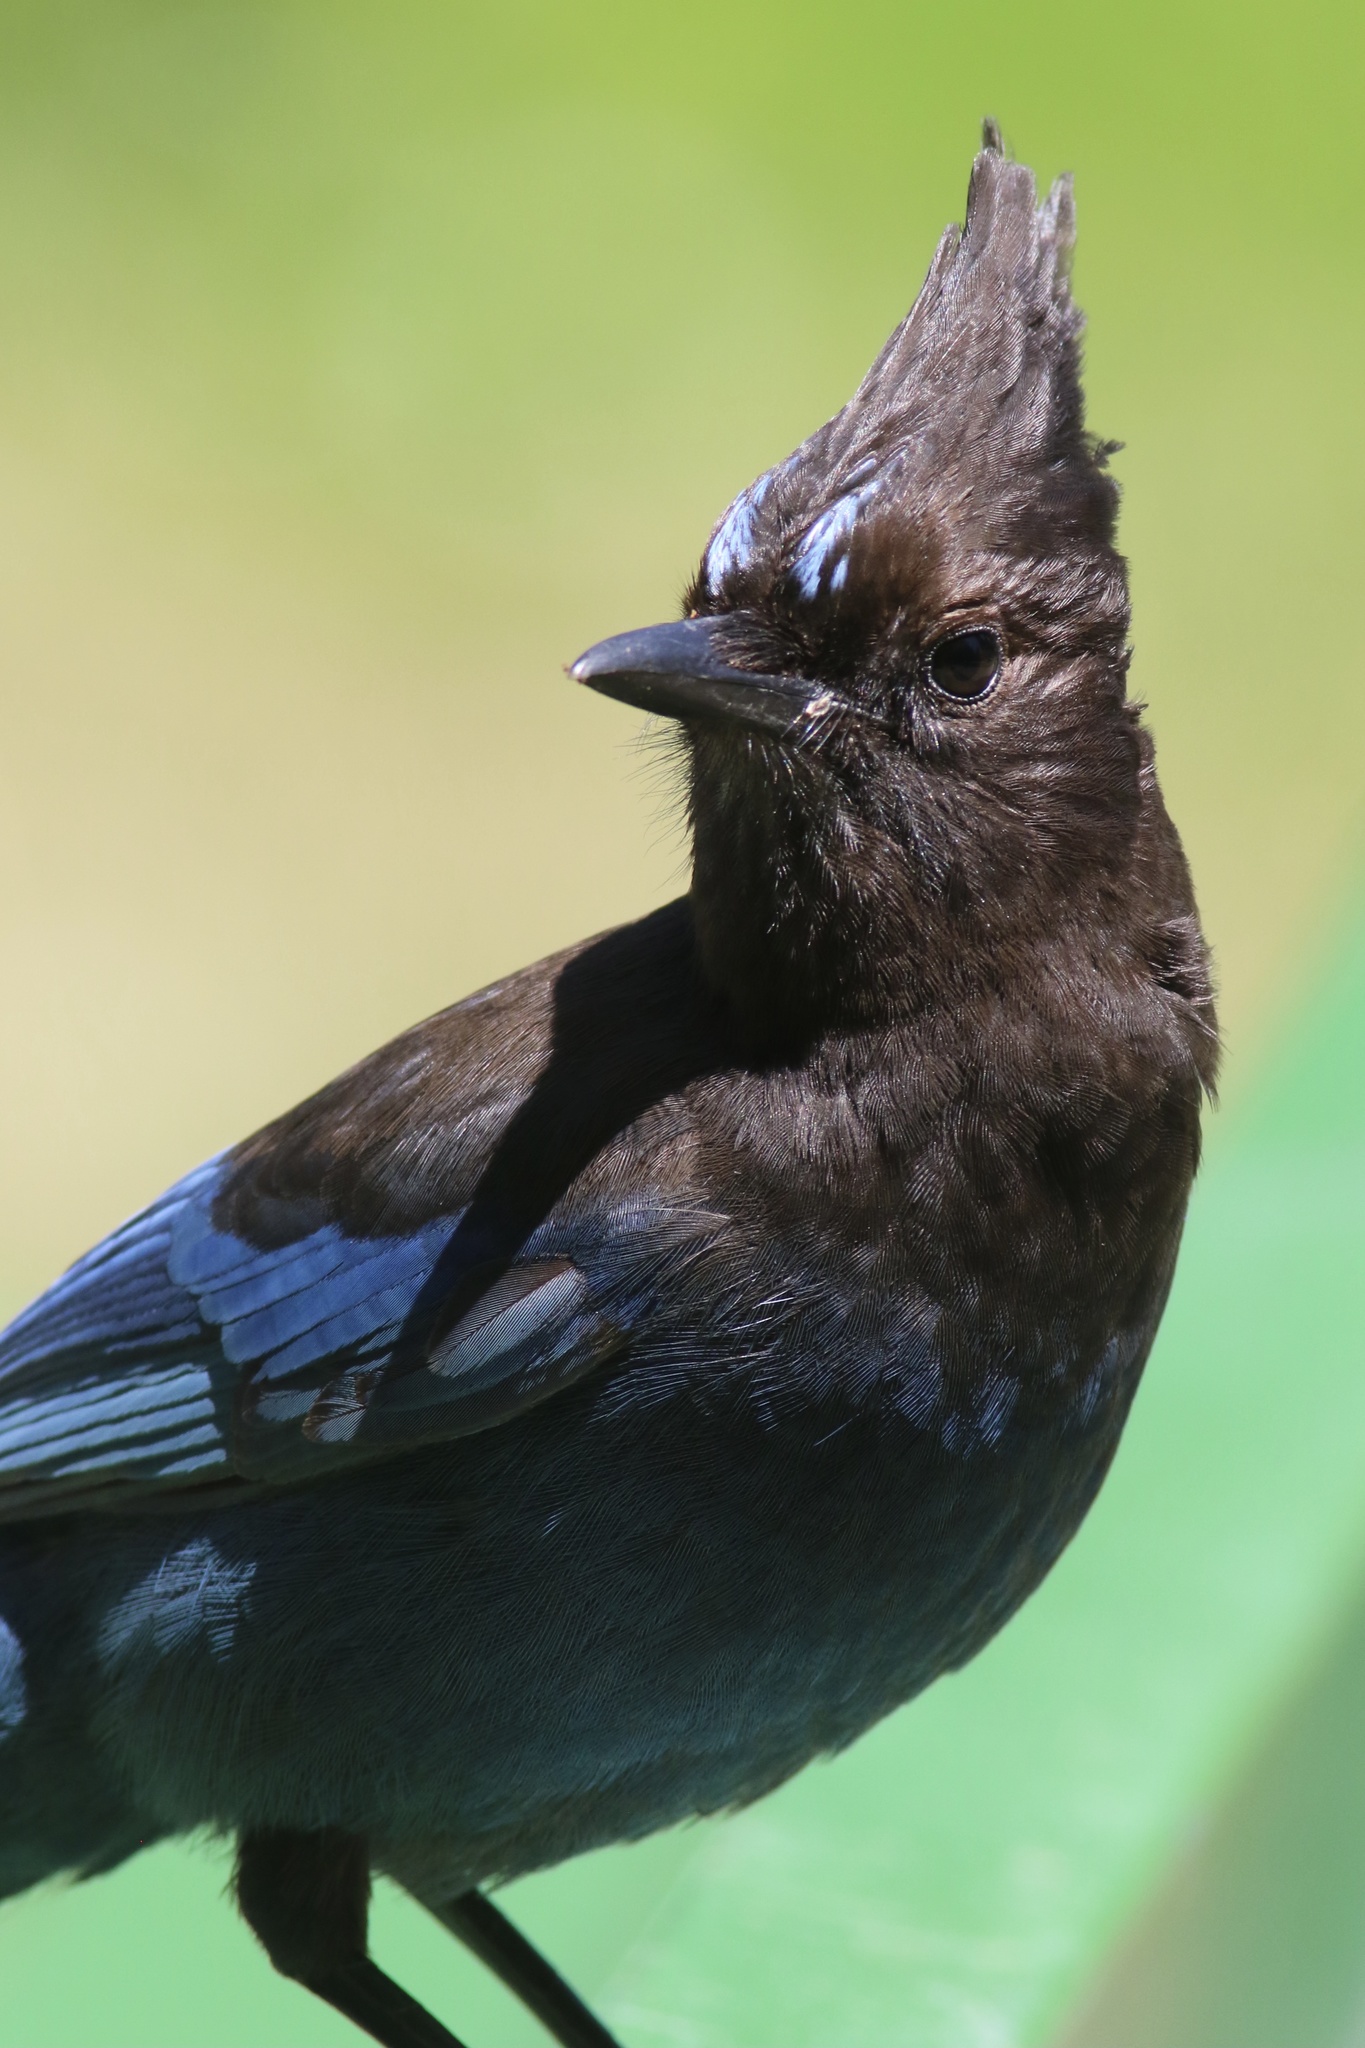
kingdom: Animalia
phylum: Chordata
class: Aves
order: Passeriformes
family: Corvidae
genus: Cyanocitta
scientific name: Cyanocitta stelleri
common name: Steller's jay
